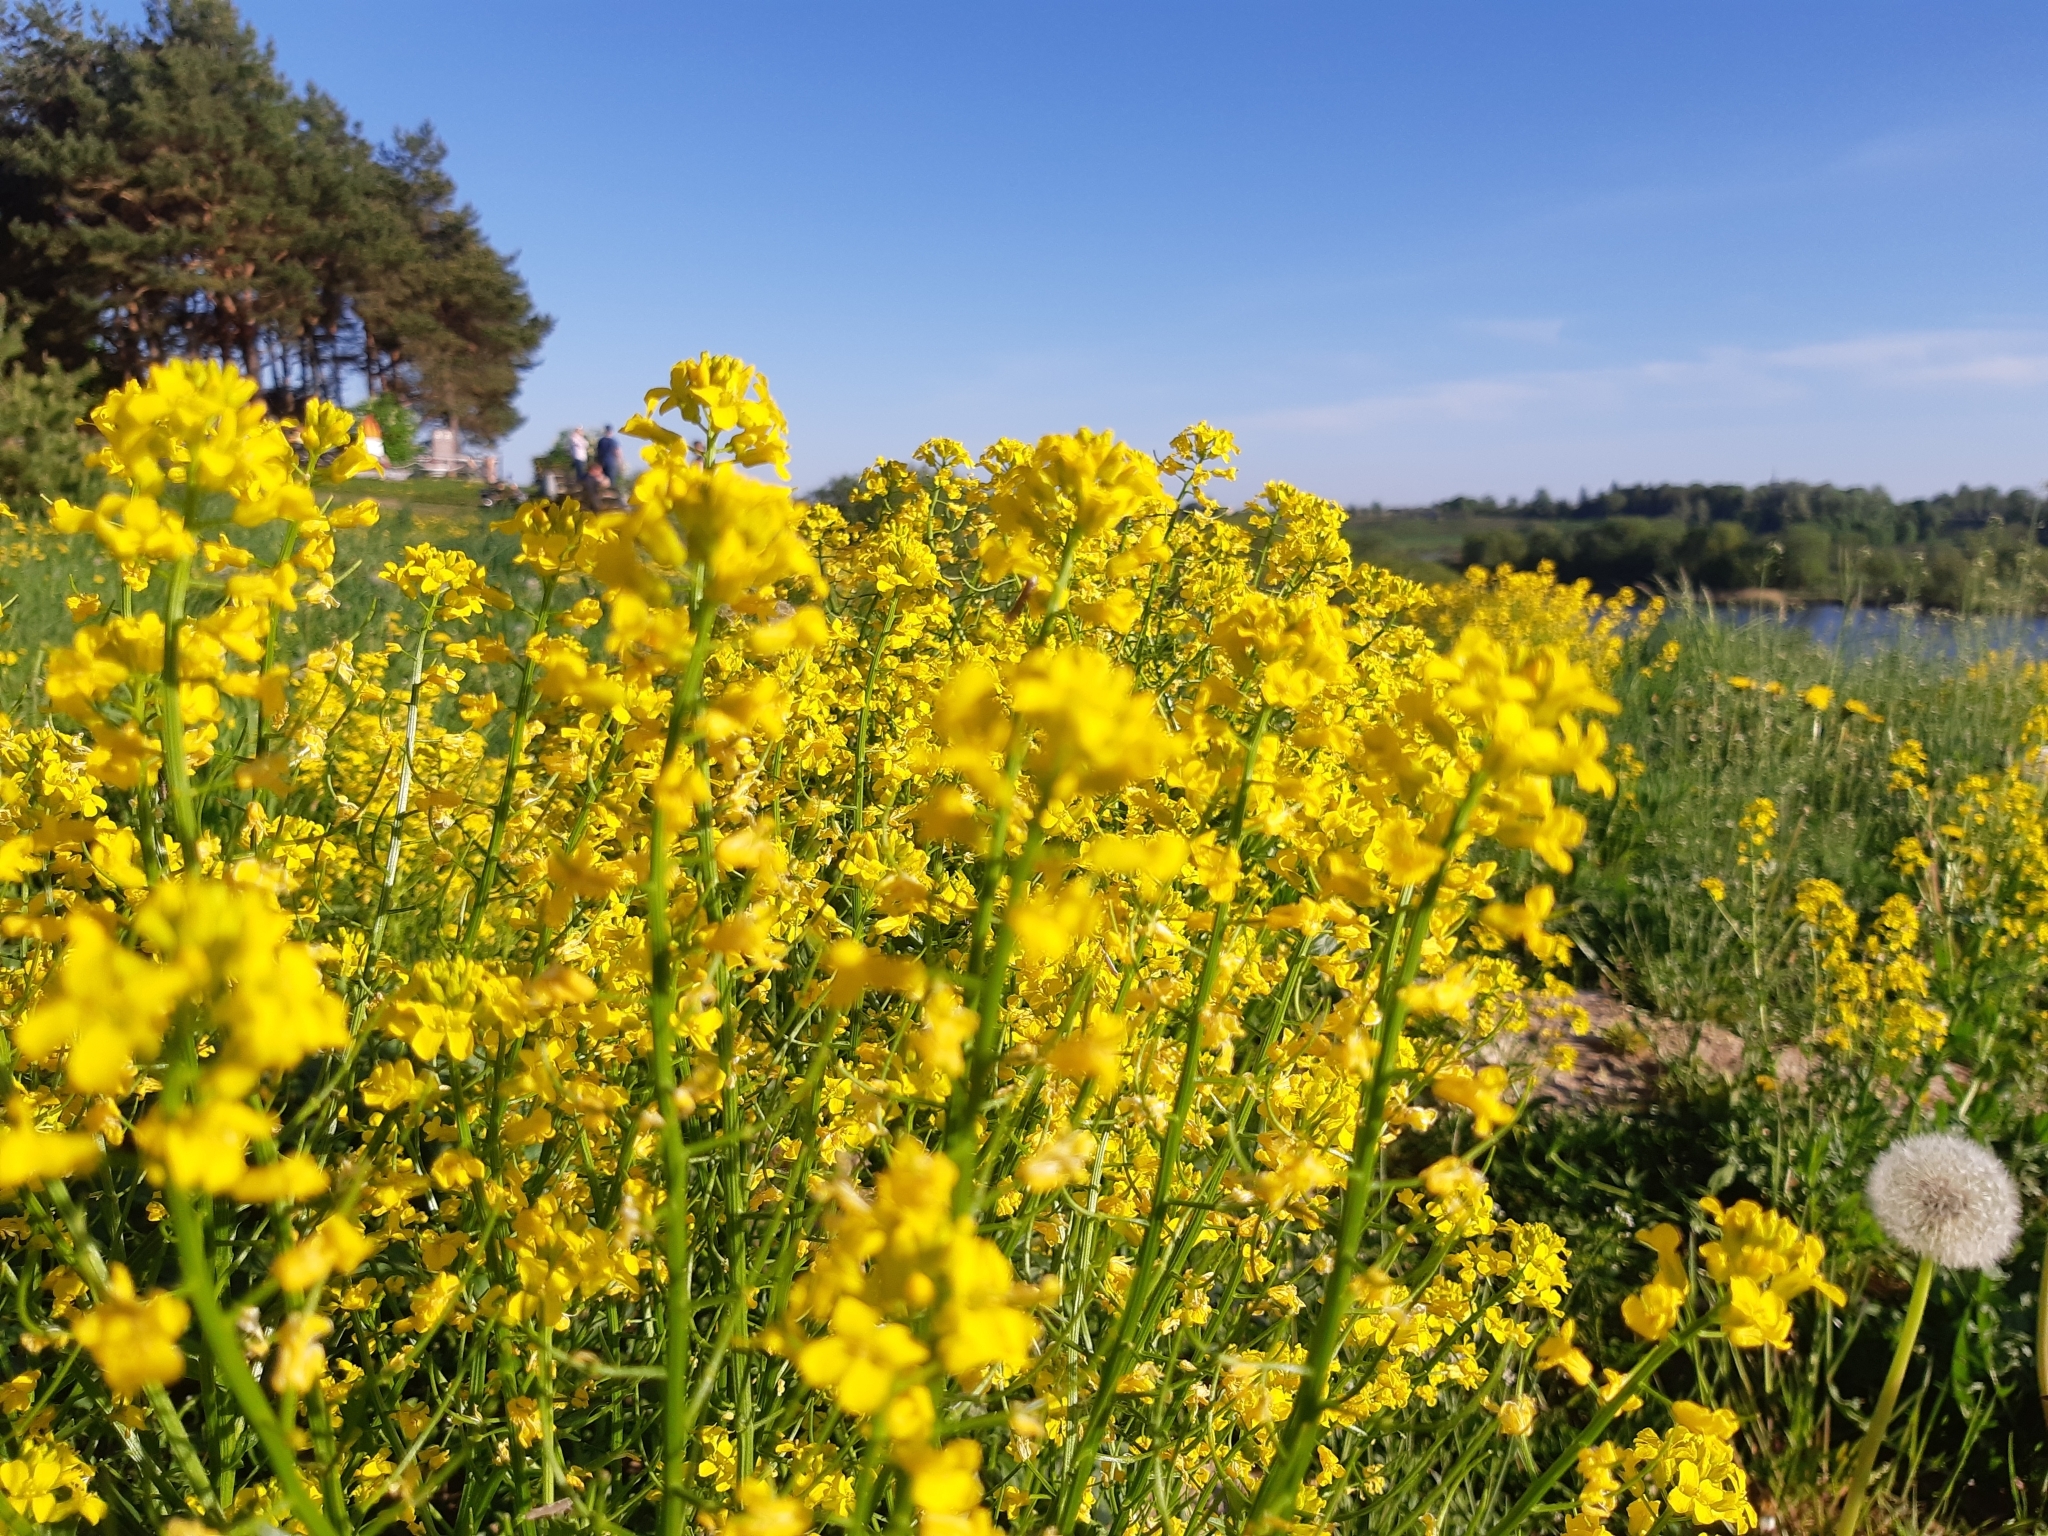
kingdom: Plantae
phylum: Tracheophyta
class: Magnoliopsida
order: Brassicales
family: Brassicaceae
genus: Barbarea
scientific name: Barbarea vulgaris
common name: Cressy-greens
